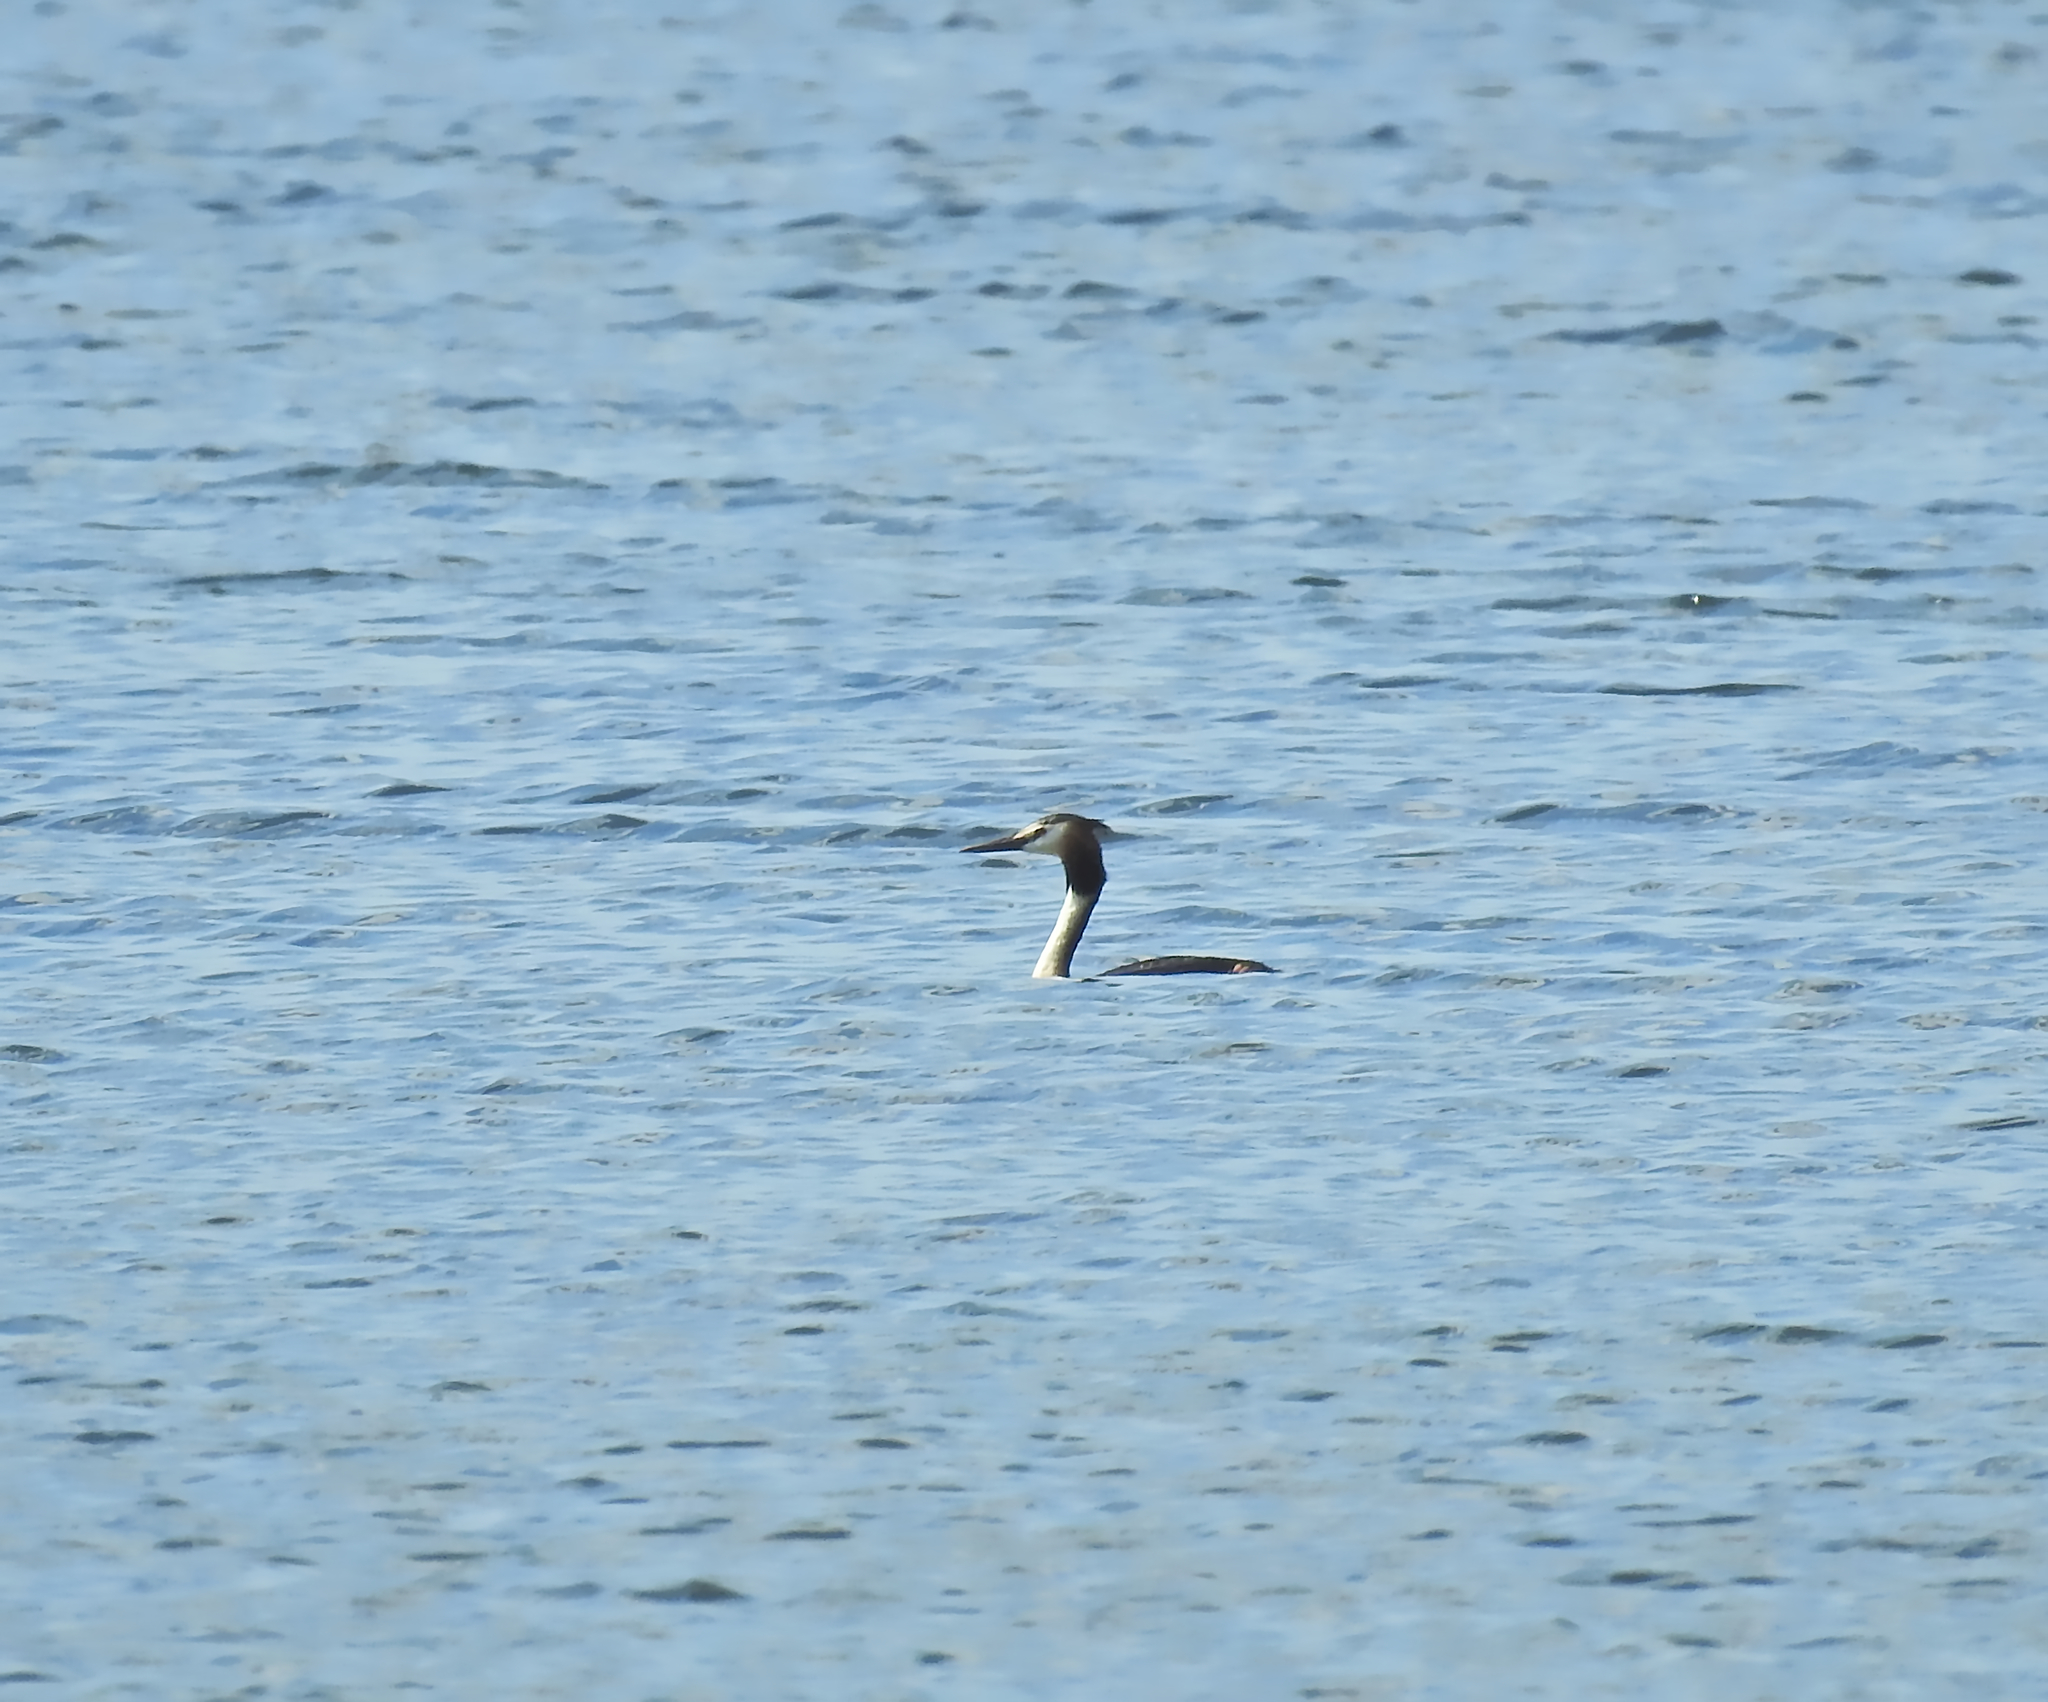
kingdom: Animalia
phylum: Chordata
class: Aves
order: Podicipediformes
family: Podicipedidae
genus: Podiceps
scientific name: Podiceps cristatus
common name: Great crested grebe
